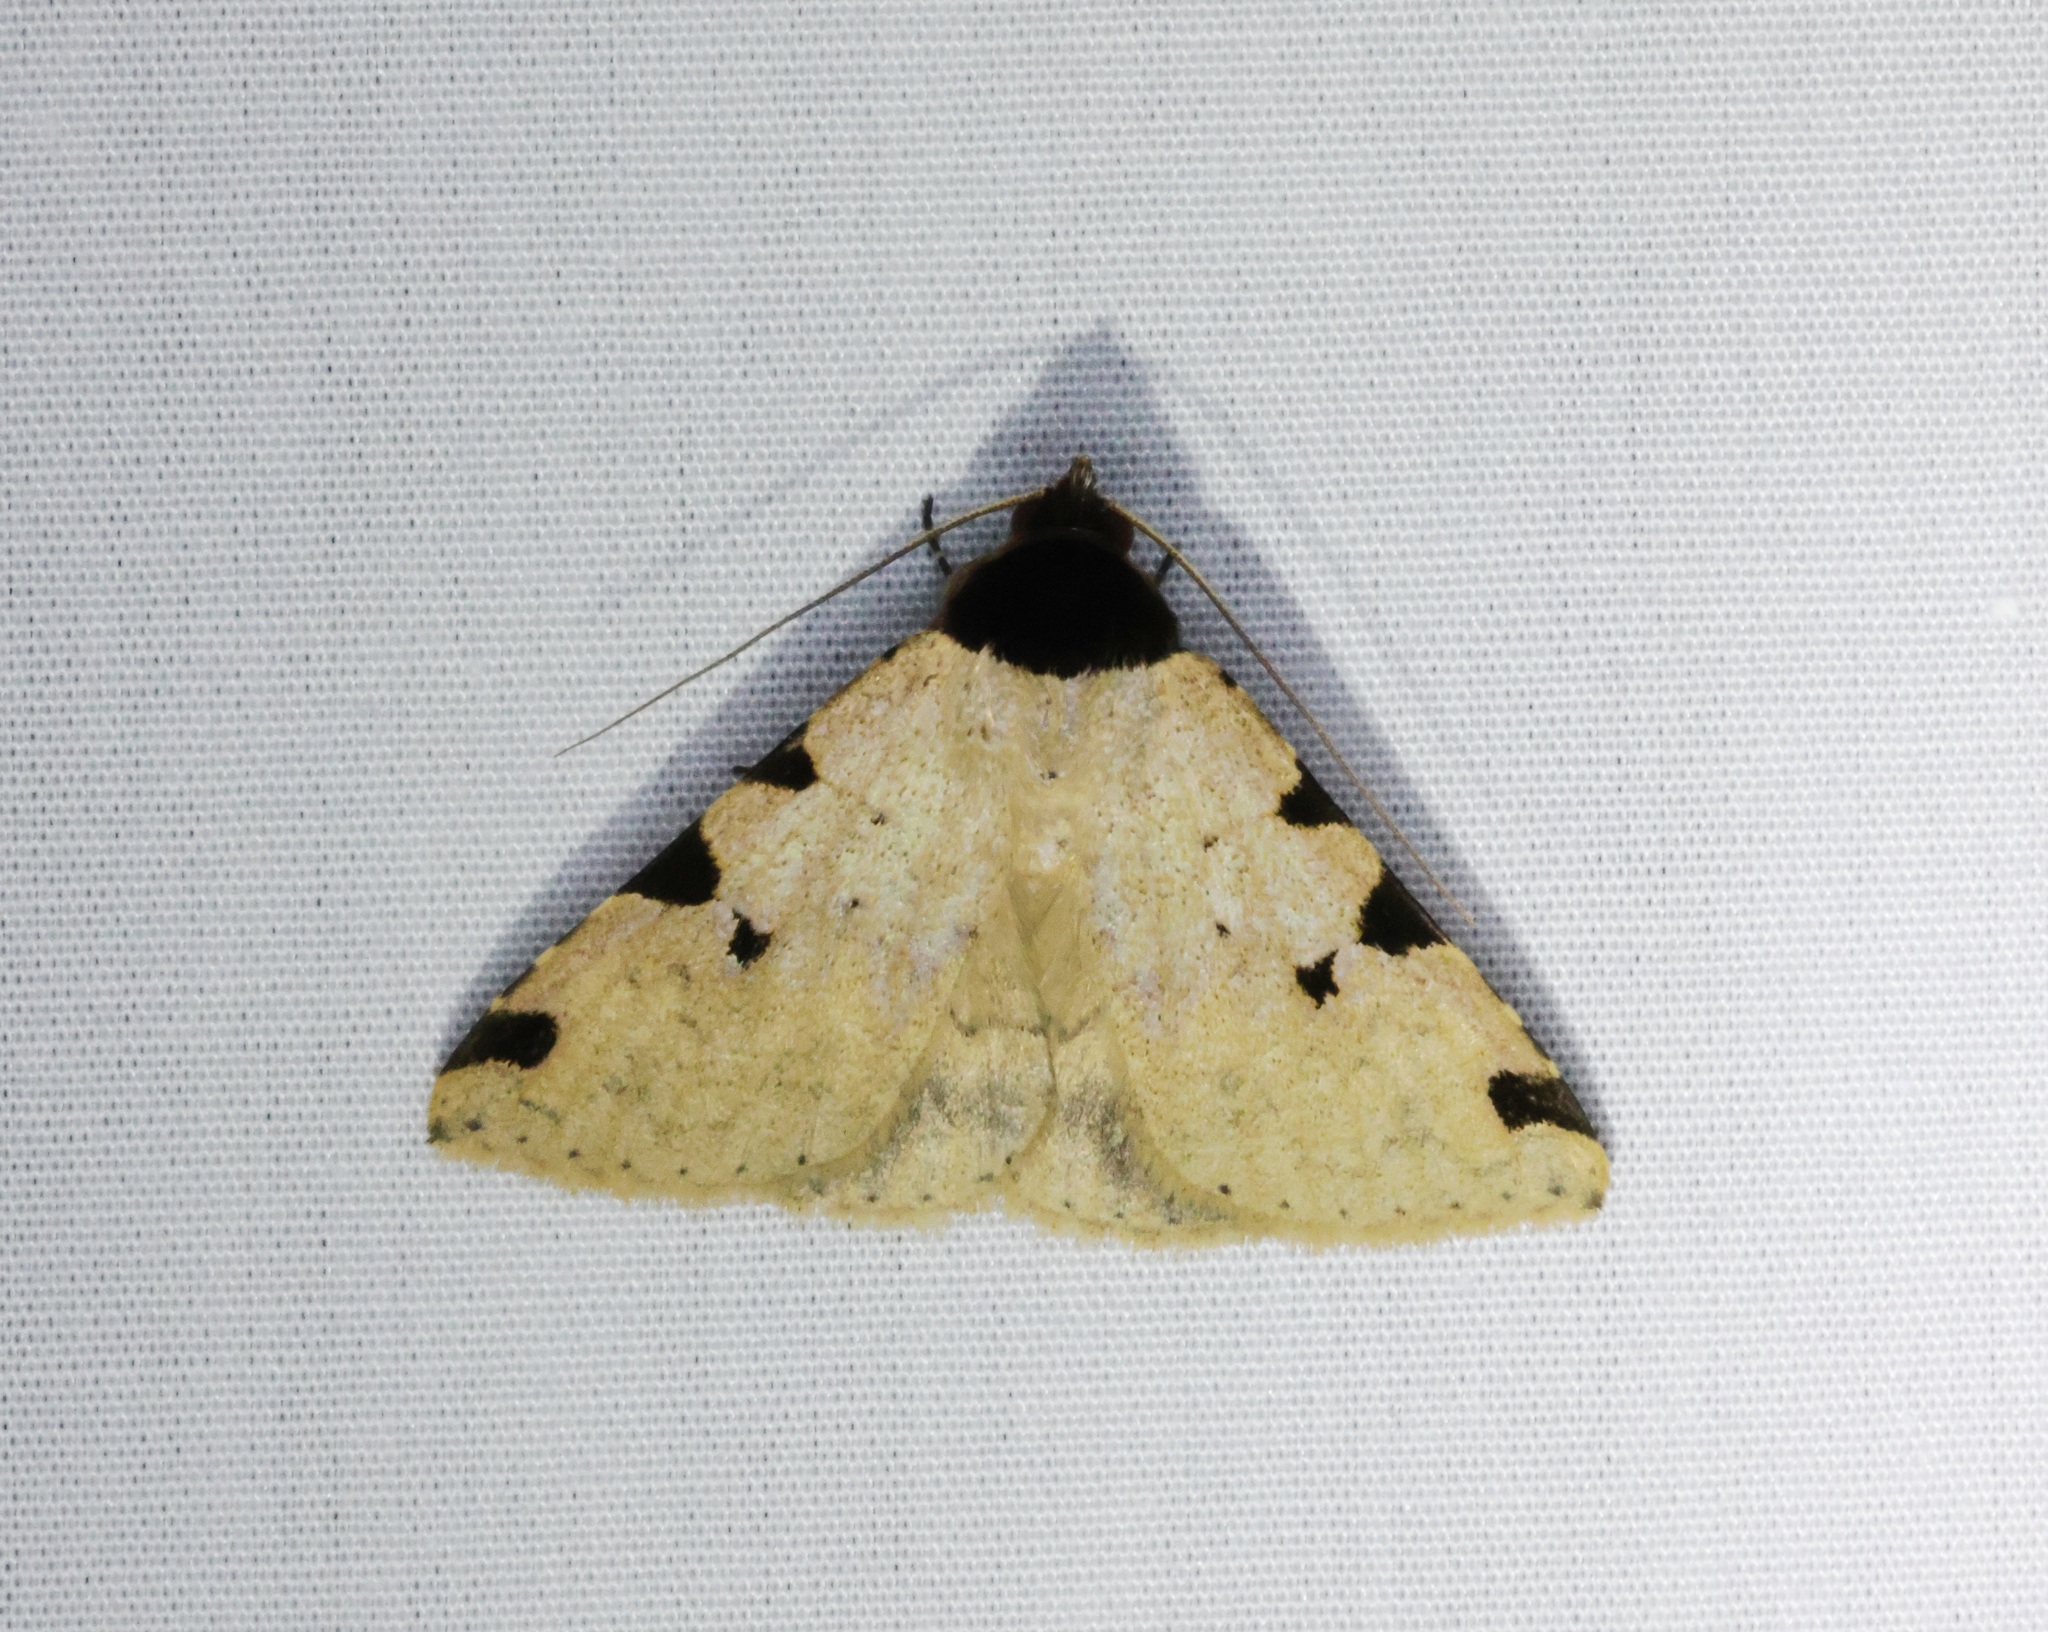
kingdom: Animalia
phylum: Arthropoda
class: Insecta
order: Lepidoptera
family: Erebidae
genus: Rema
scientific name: Rema costimacula
